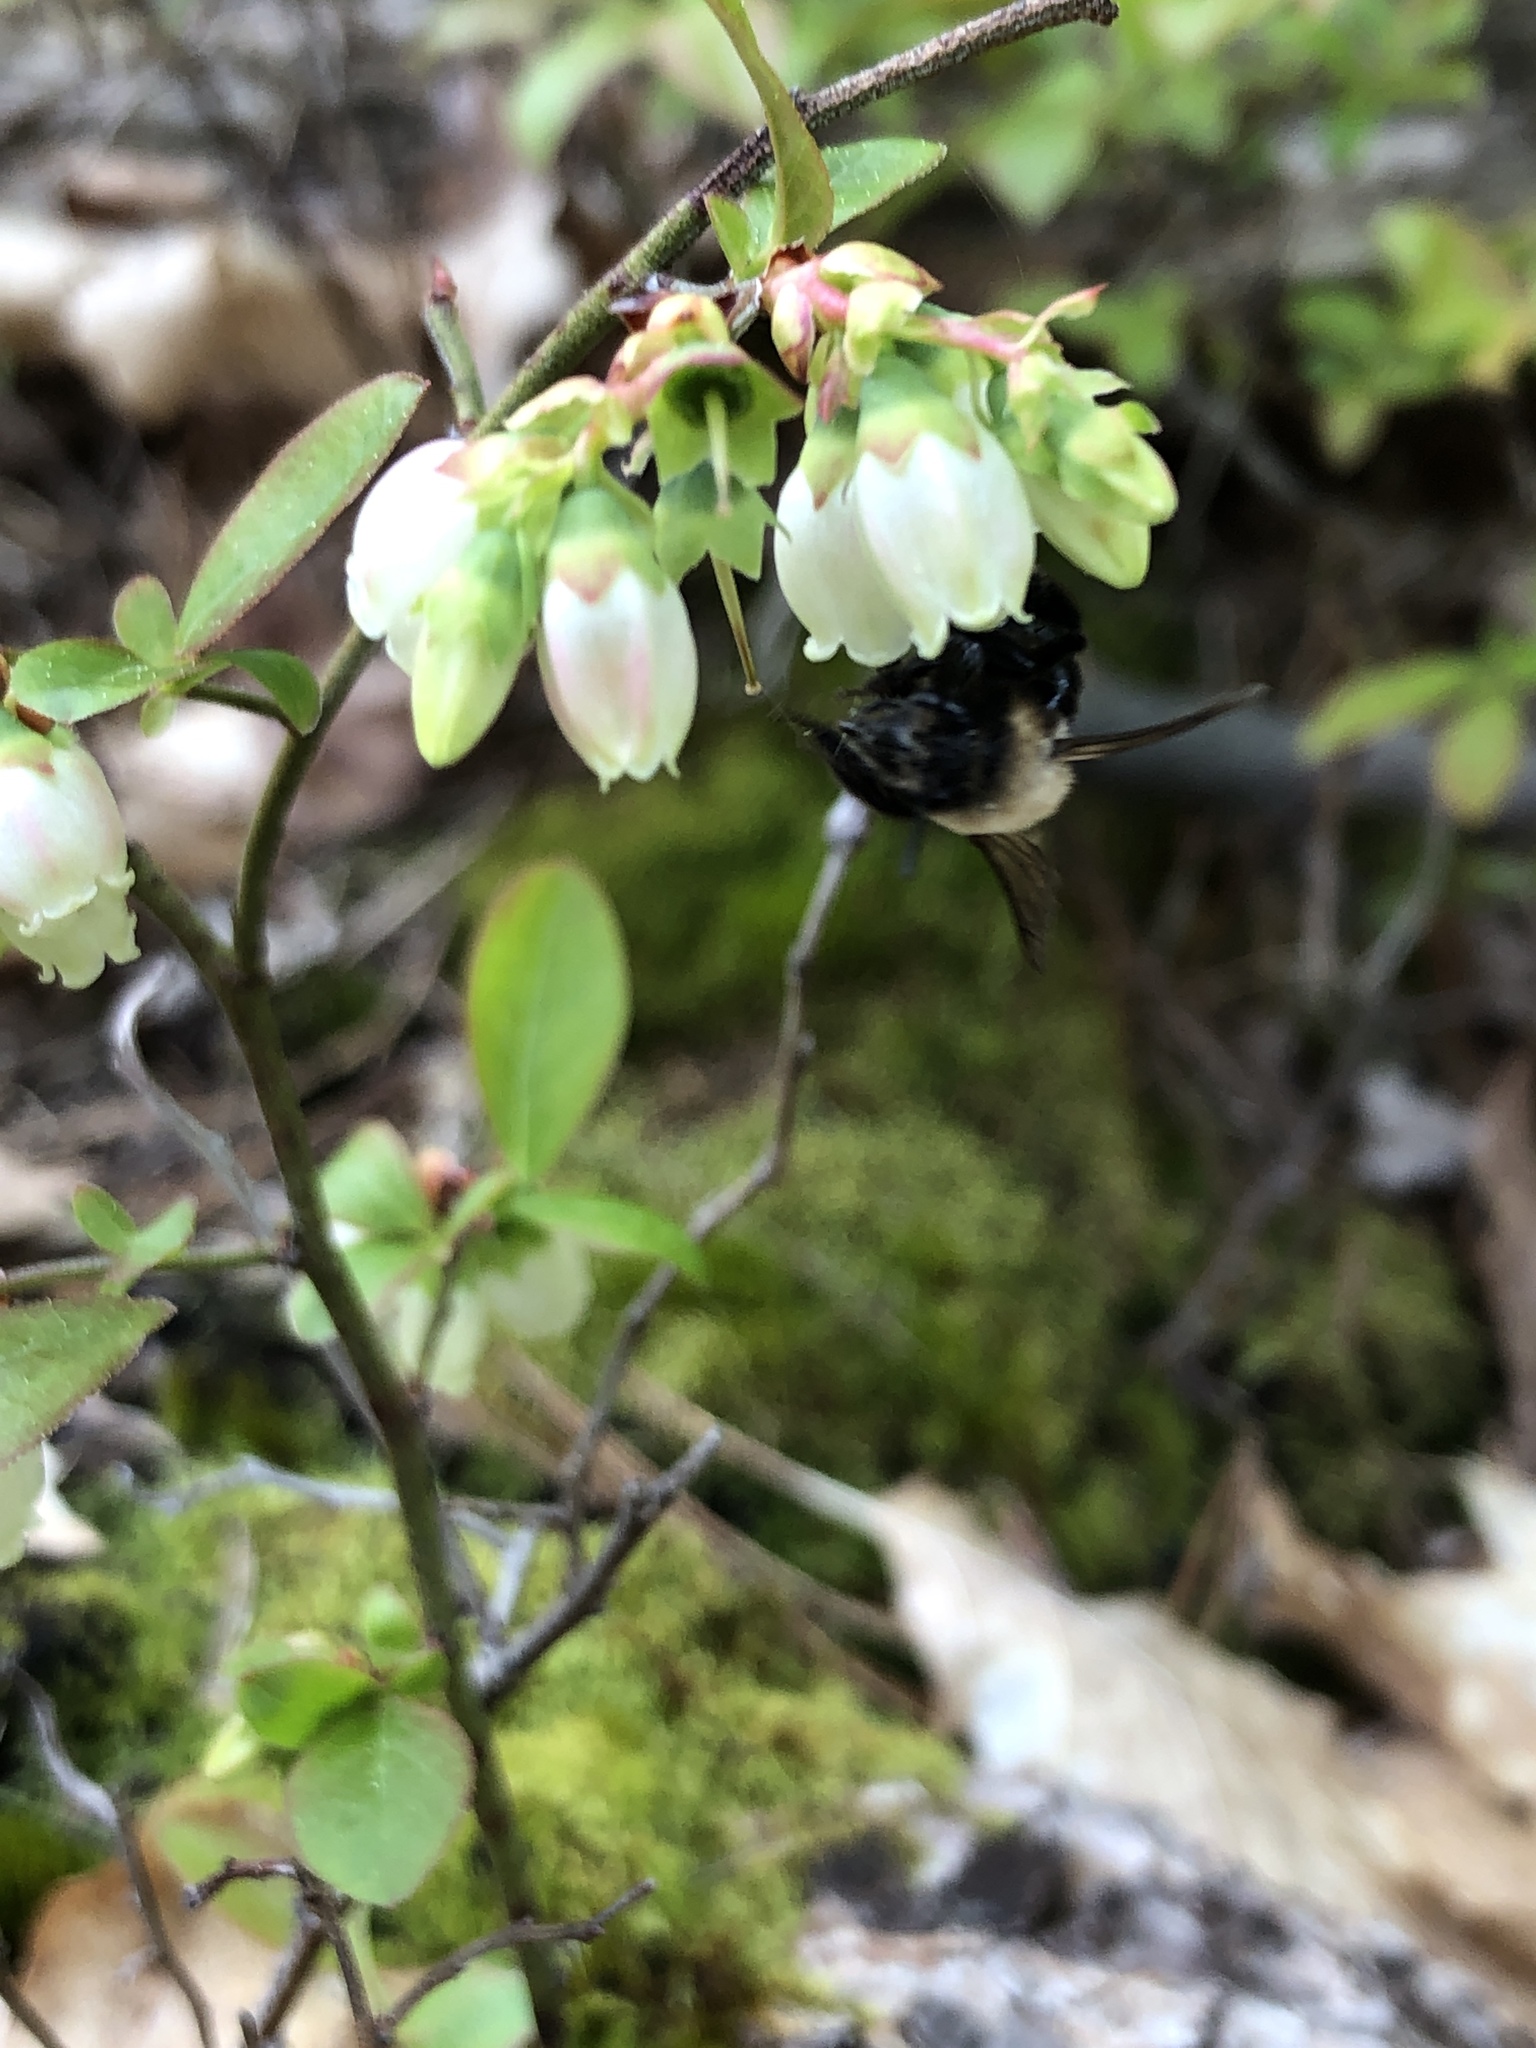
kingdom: Animalia
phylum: Arthropoda
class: Insecta
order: Hymenoptera
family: Apidae
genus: Bombus
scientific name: Bombus impatiens
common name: Common eastern bumble bee
